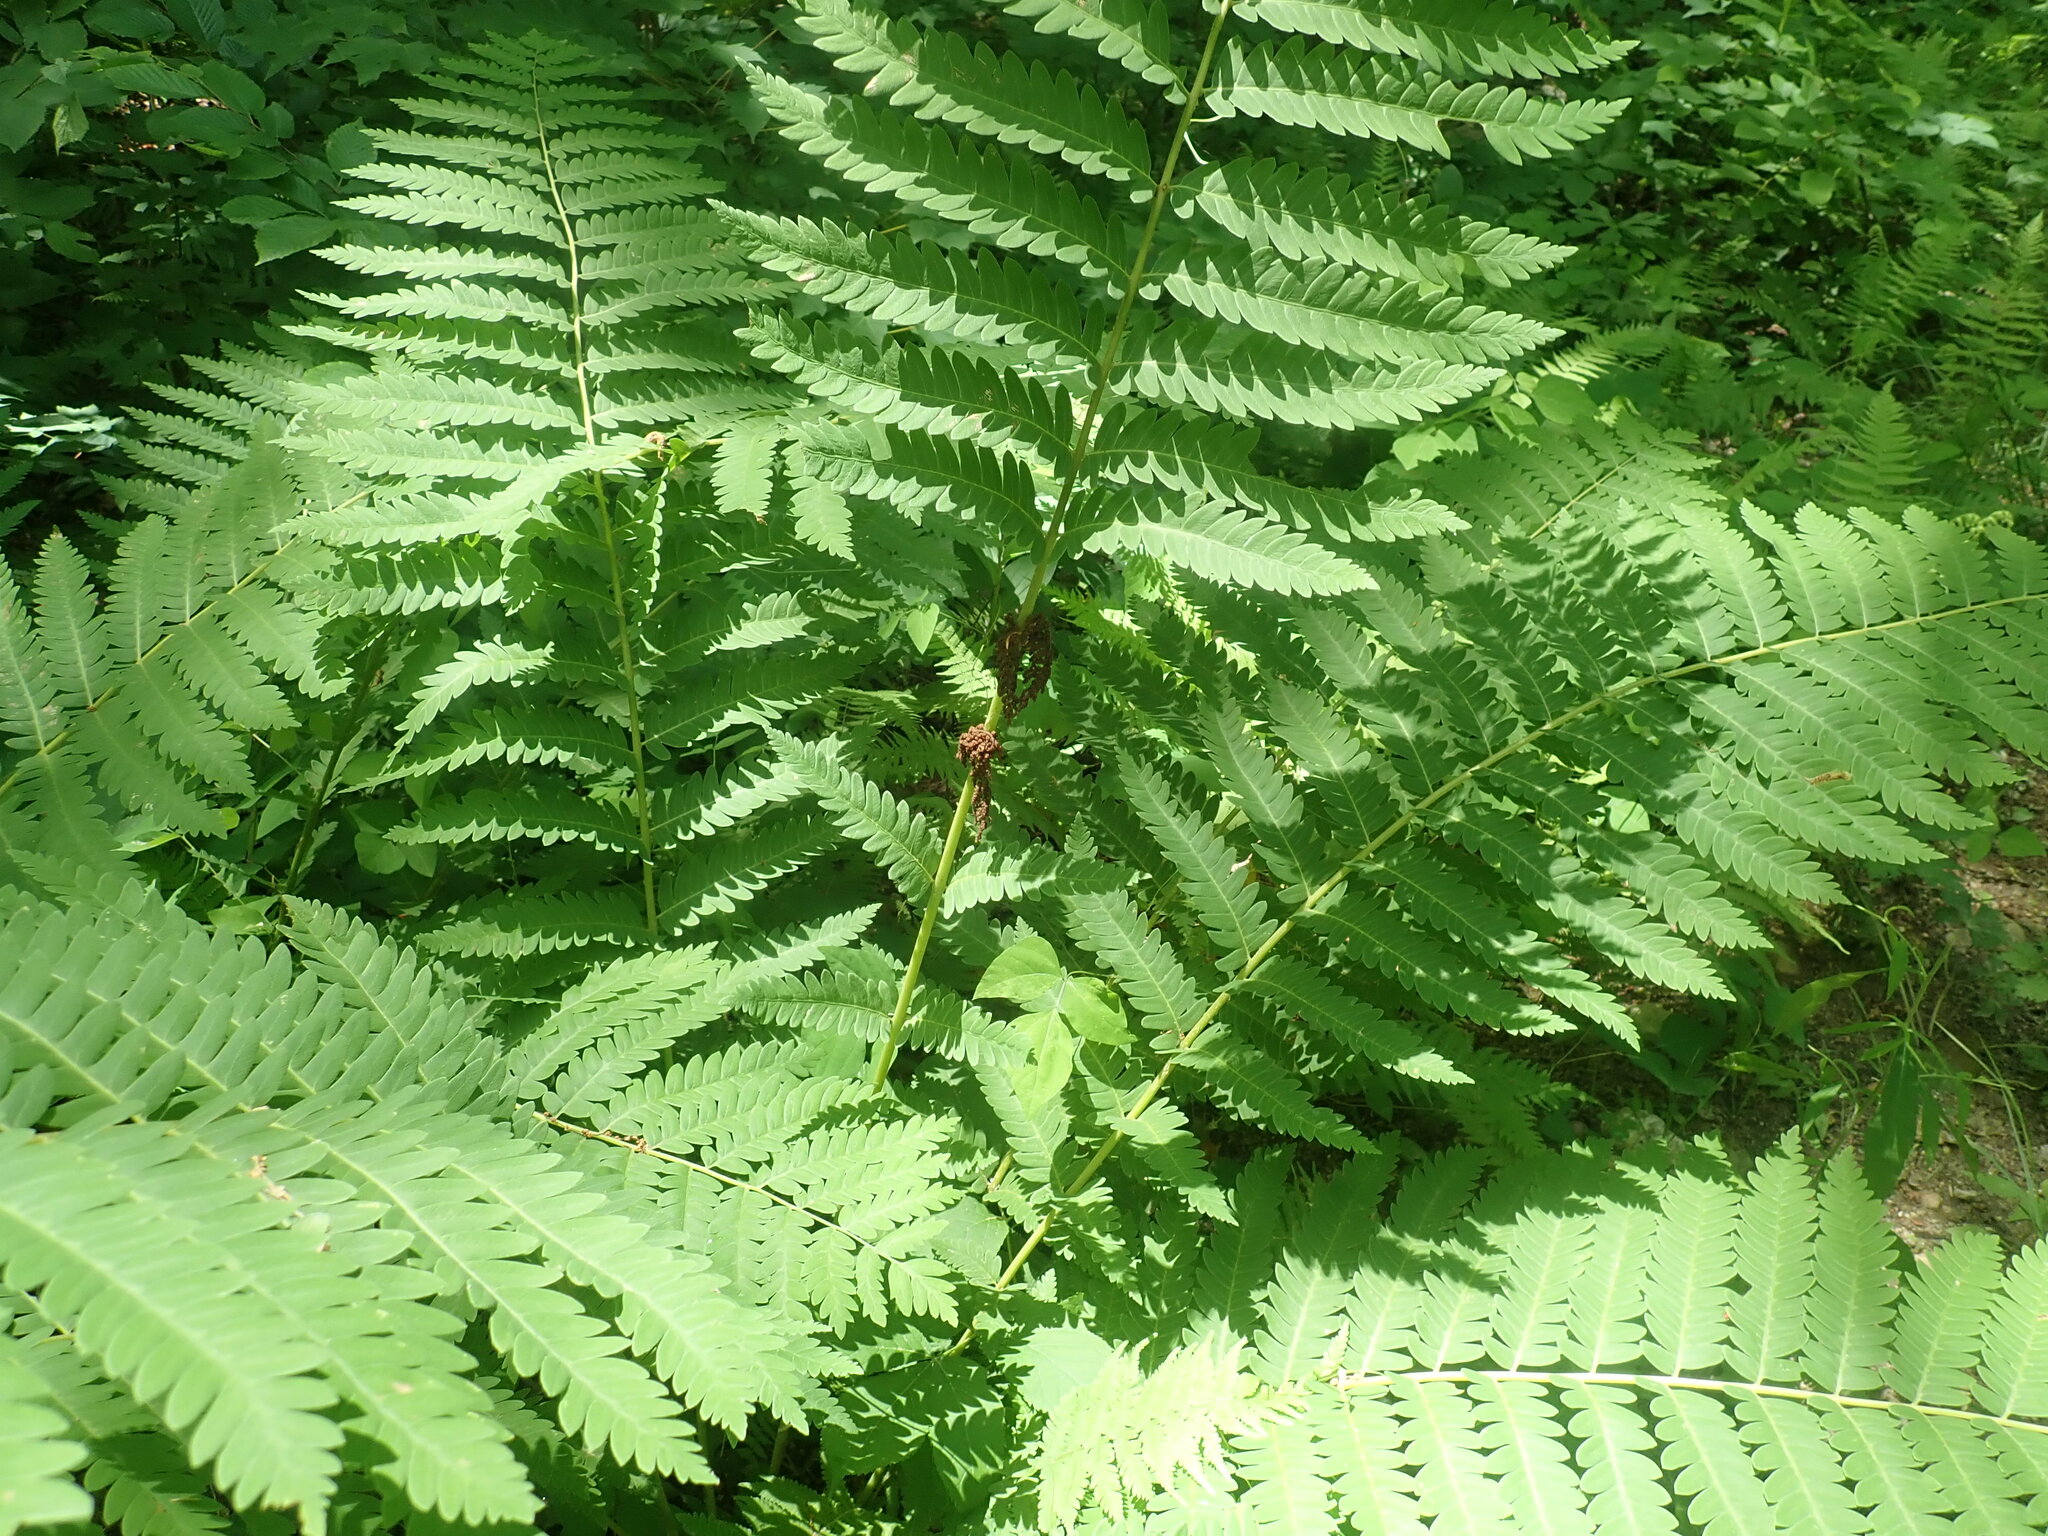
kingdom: Plantae
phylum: Tracheophyta
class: Polypodiopsida
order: Osmundales
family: Osmundaceae
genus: Claytosmunda
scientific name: Claytosmunda claytoniana
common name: Clayton's fern
